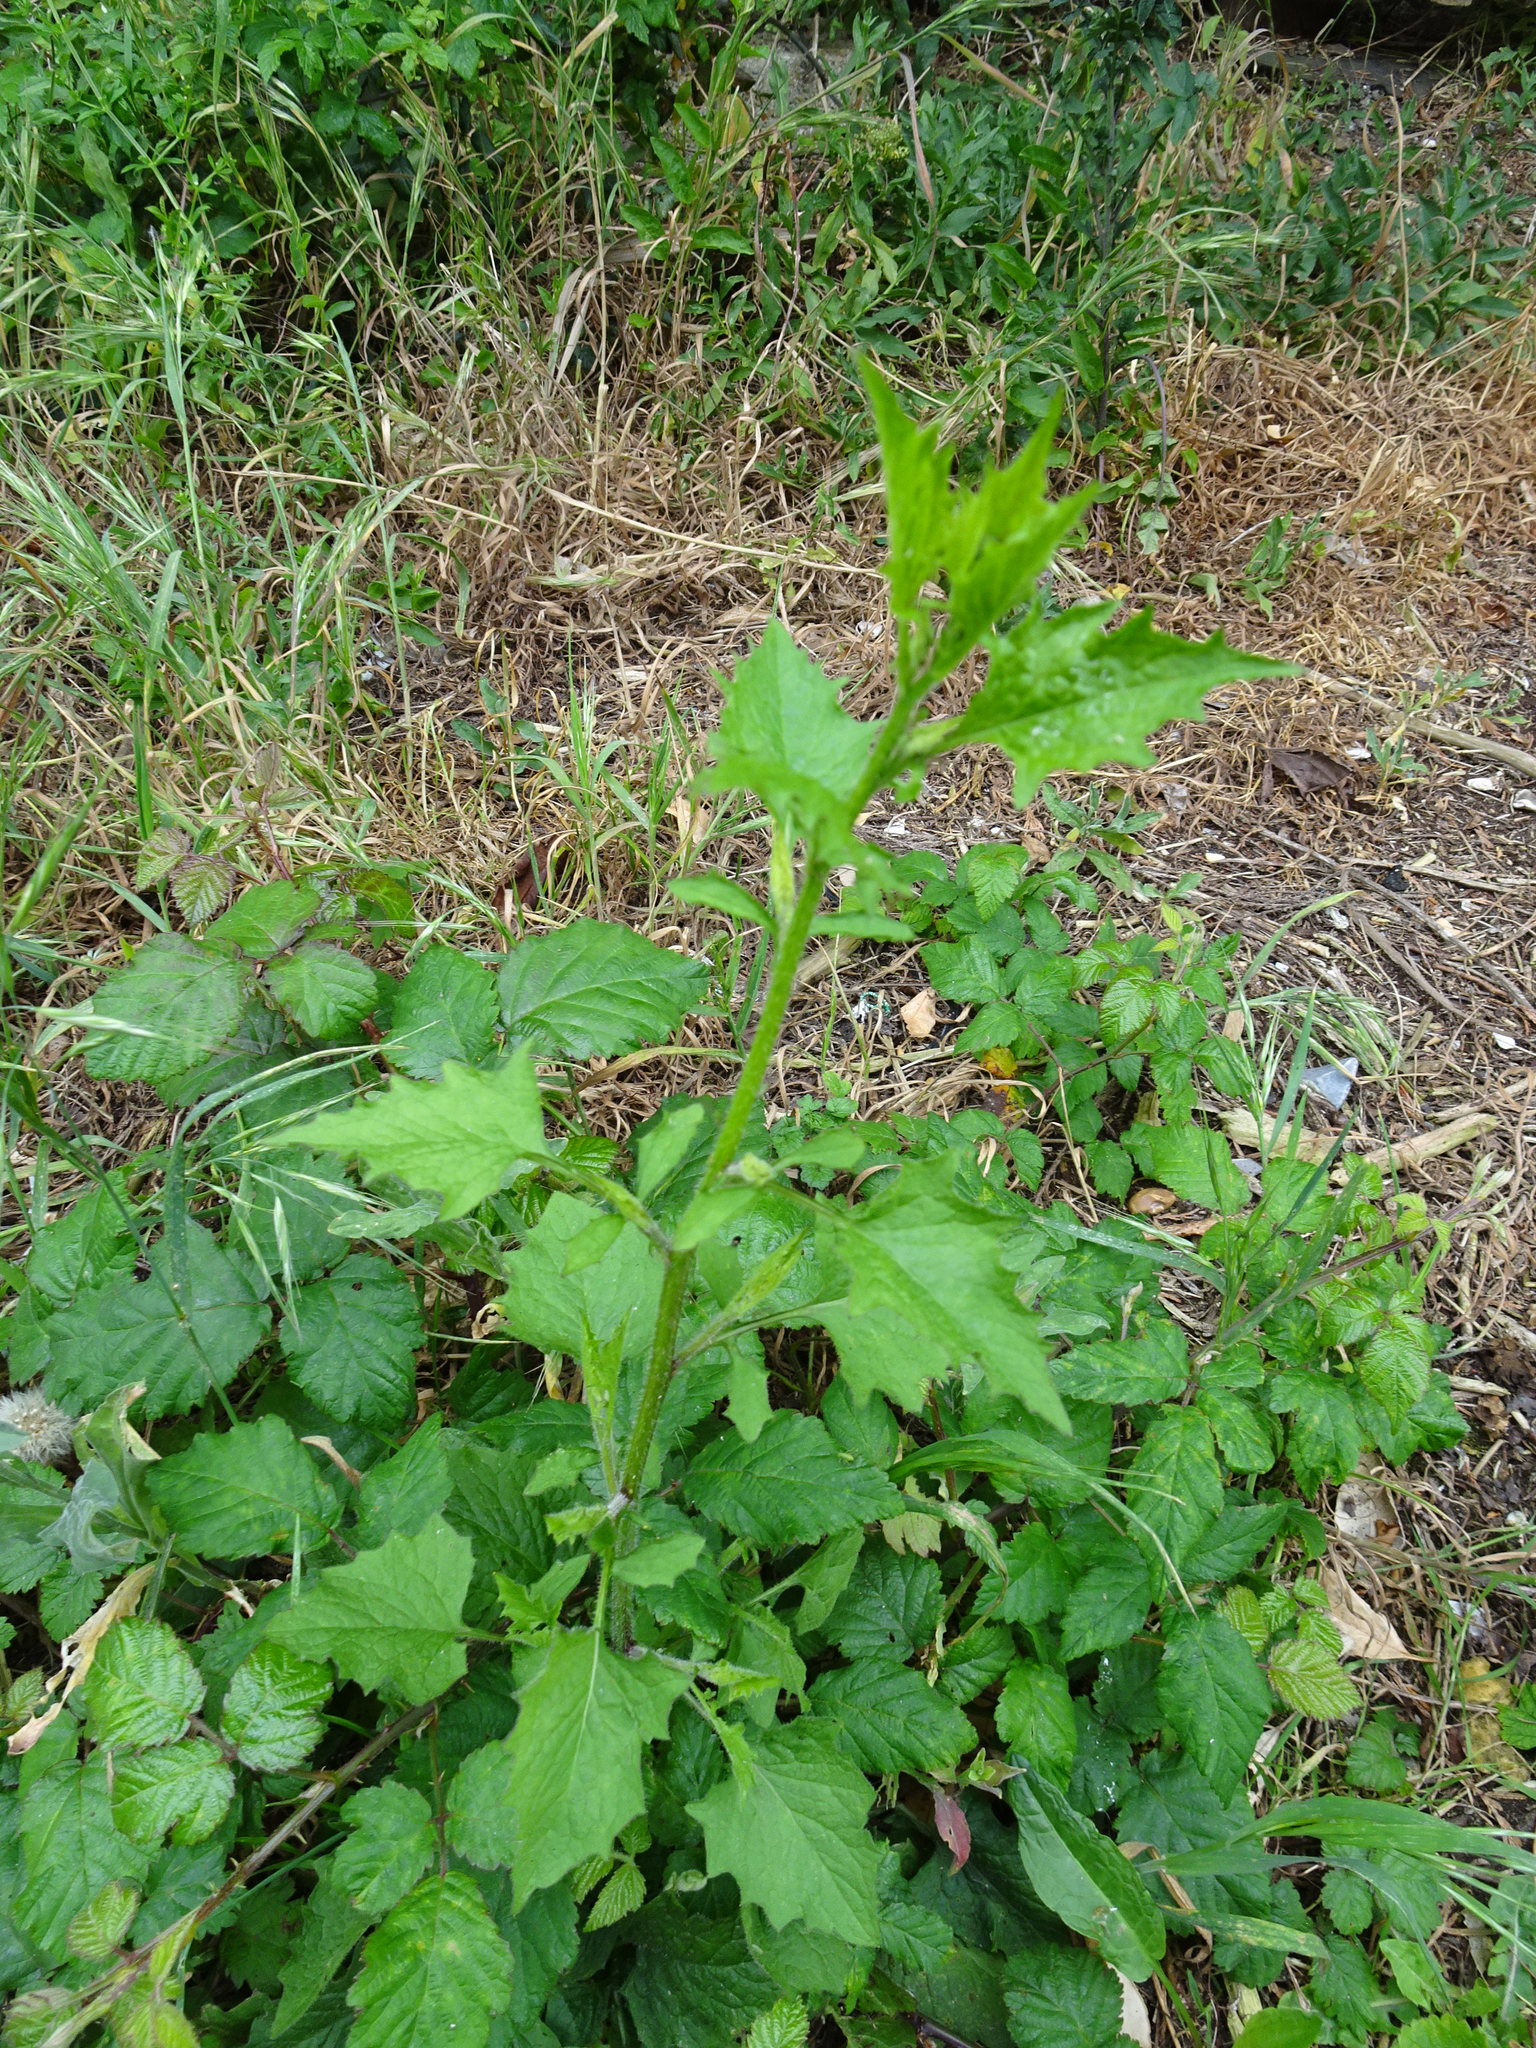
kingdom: Plantae
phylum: Tracheophyta
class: Magnoliopsida
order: Asterales
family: Asteraceae
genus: Lapsana
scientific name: Lapsana communis
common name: Nipplewort
